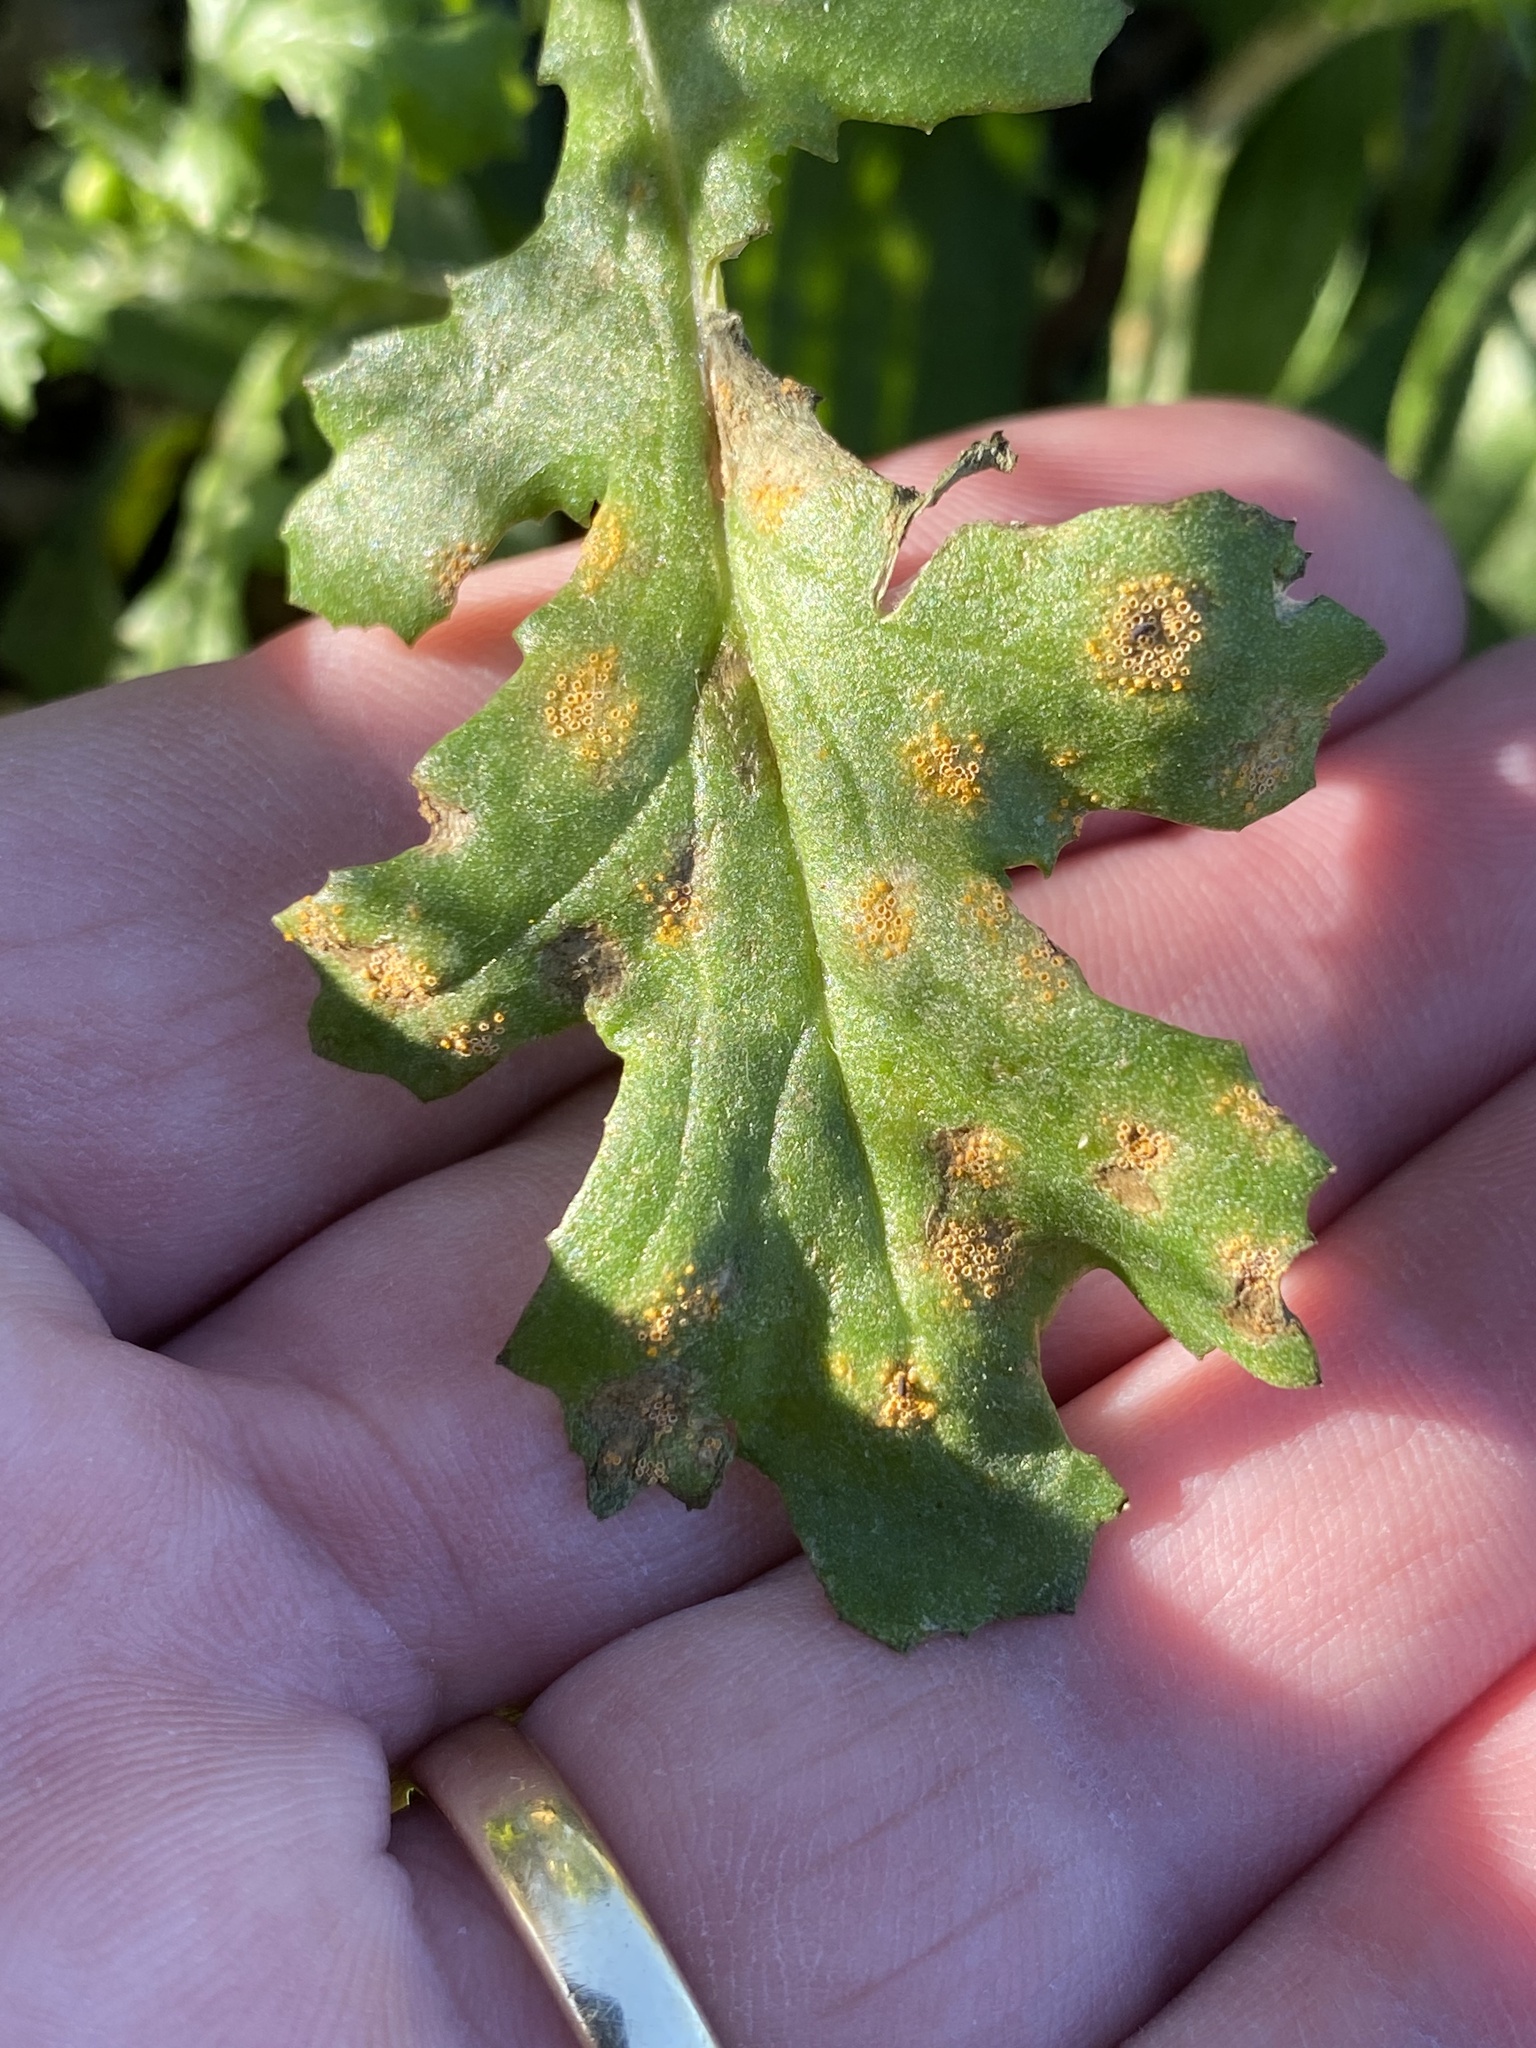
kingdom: Fungi
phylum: Basidiomycota
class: Pucciniomycetes
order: Pucciniales
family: Pucciniaceae
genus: Puccinia
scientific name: Puccinia lagenophorae
